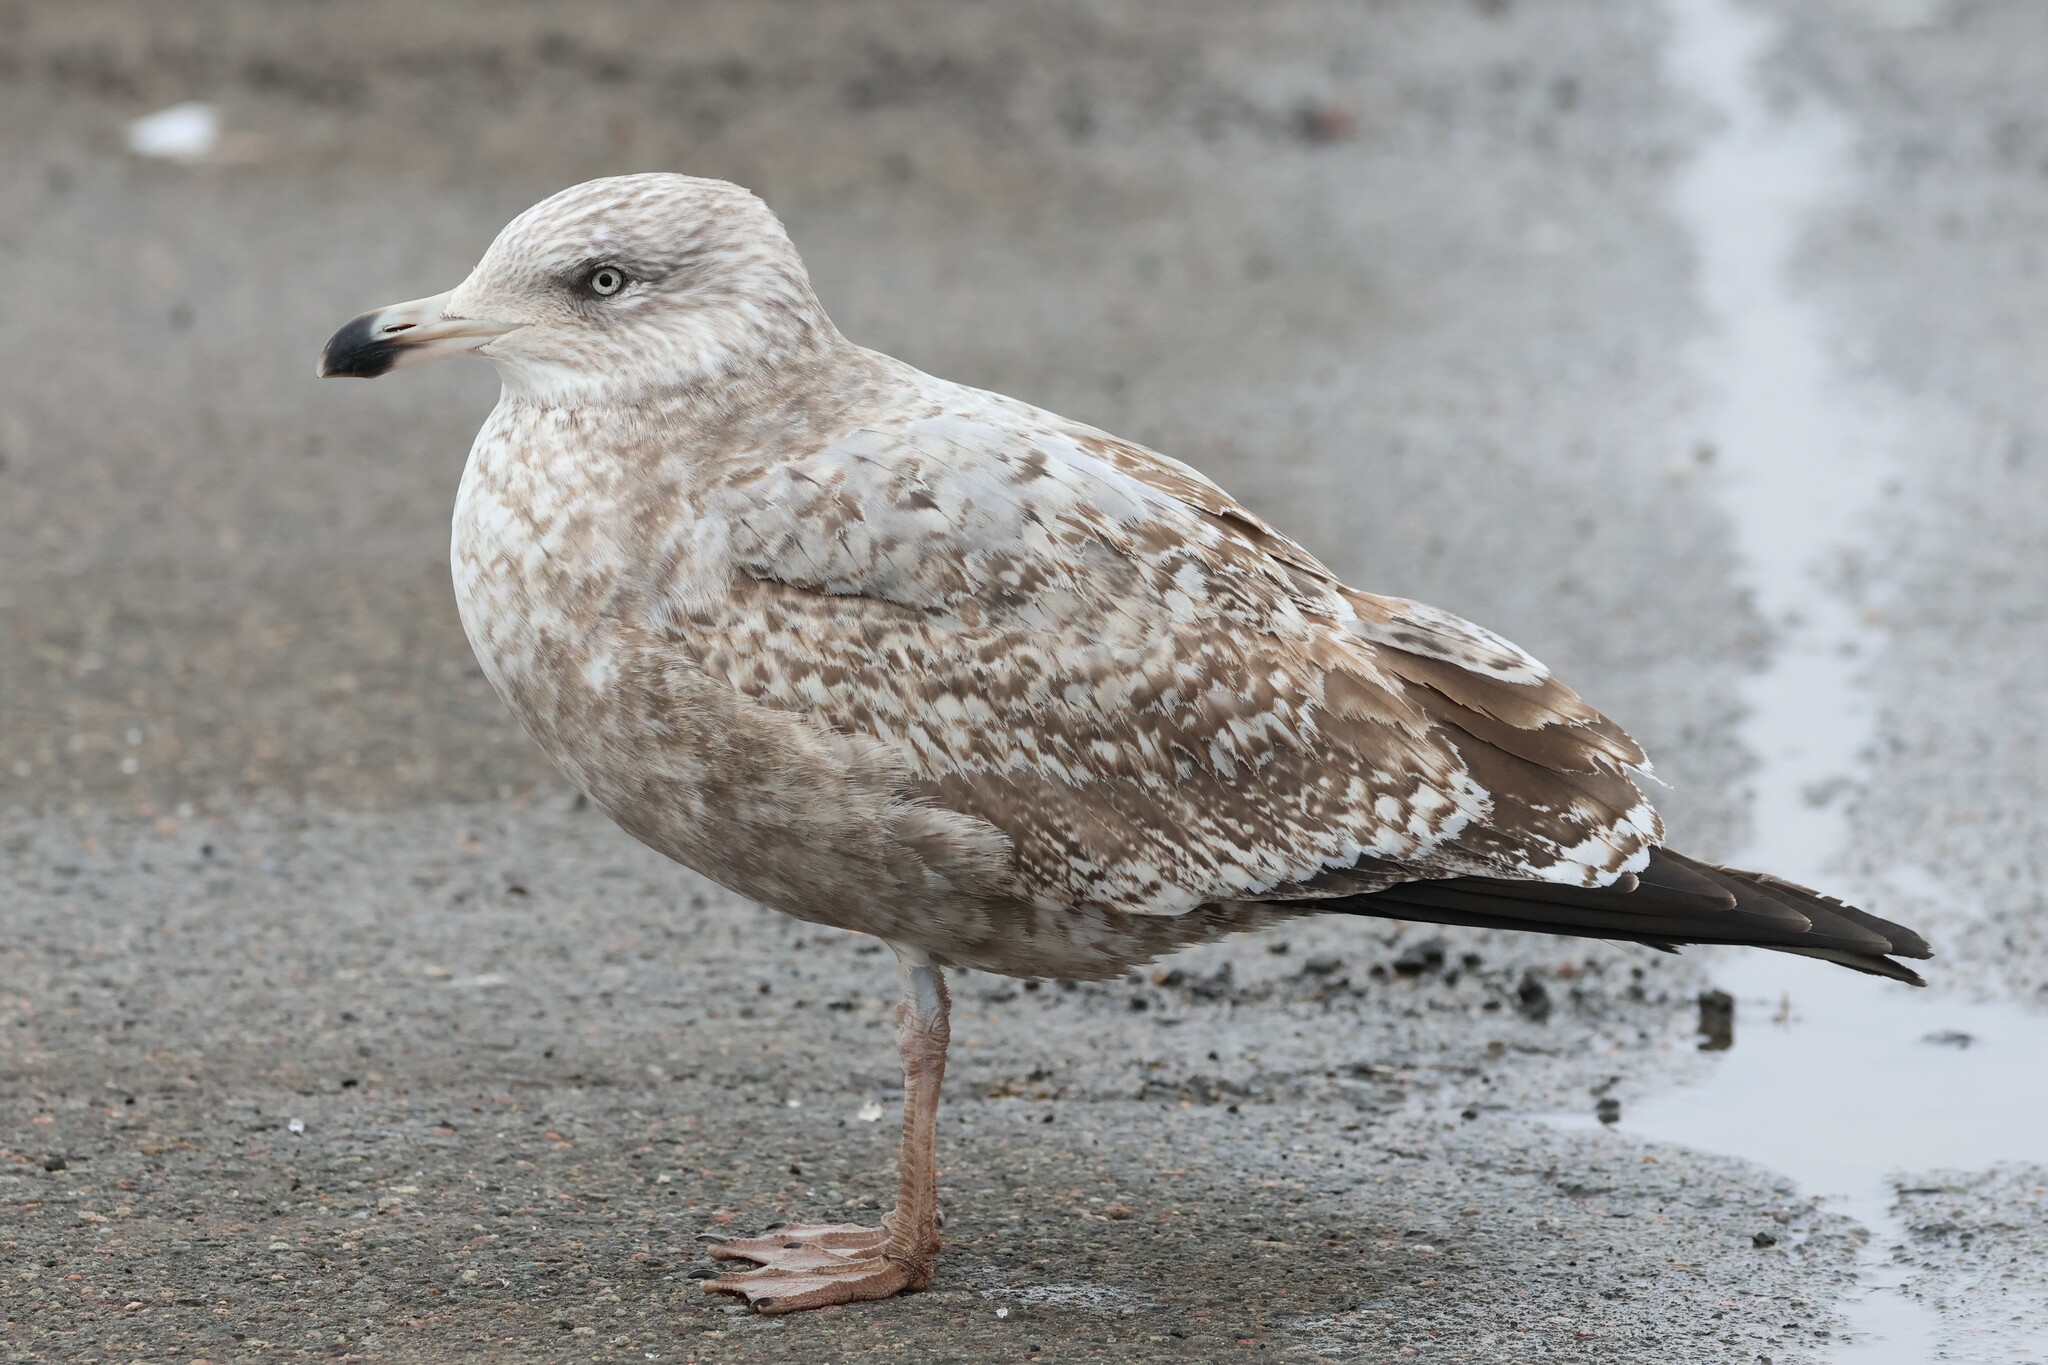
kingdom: Animalia
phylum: Chordata
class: Aves
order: Charadriiformes
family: Laridae
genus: Larus
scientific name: Larus argentatus
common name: Herring gull
